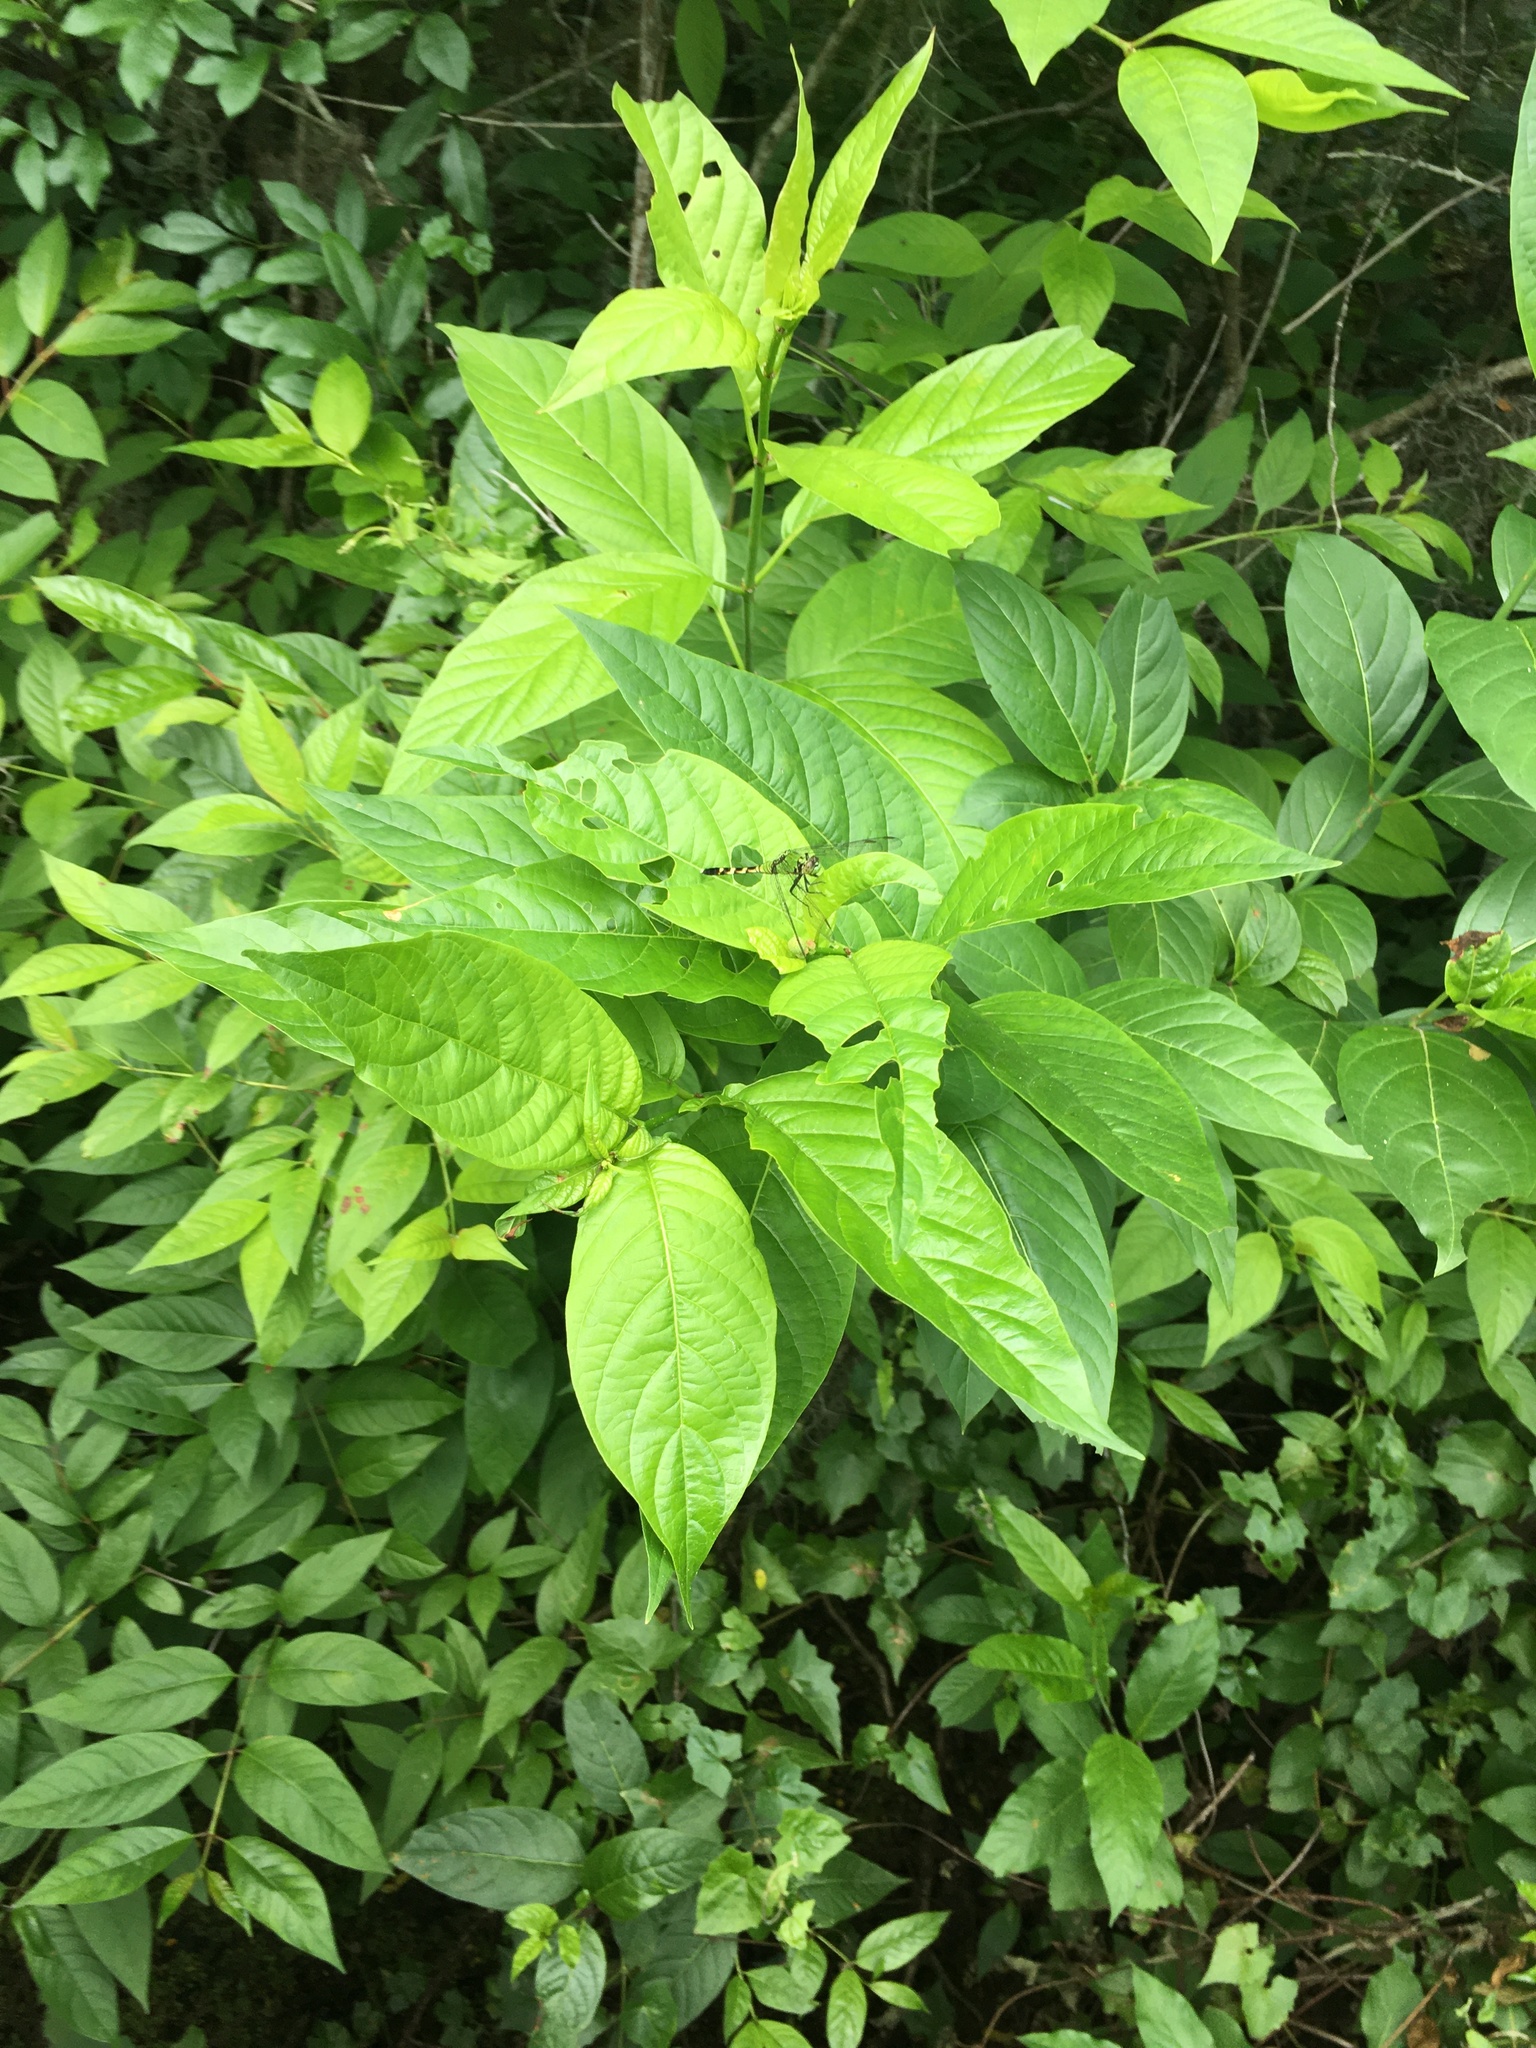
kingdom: Animalia
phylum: Arthropoda
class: Insecta
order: Odonata
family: Libellulidae
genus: Erythemis
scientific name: Erythemis simplicicollis
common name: Eastern pondhawk
